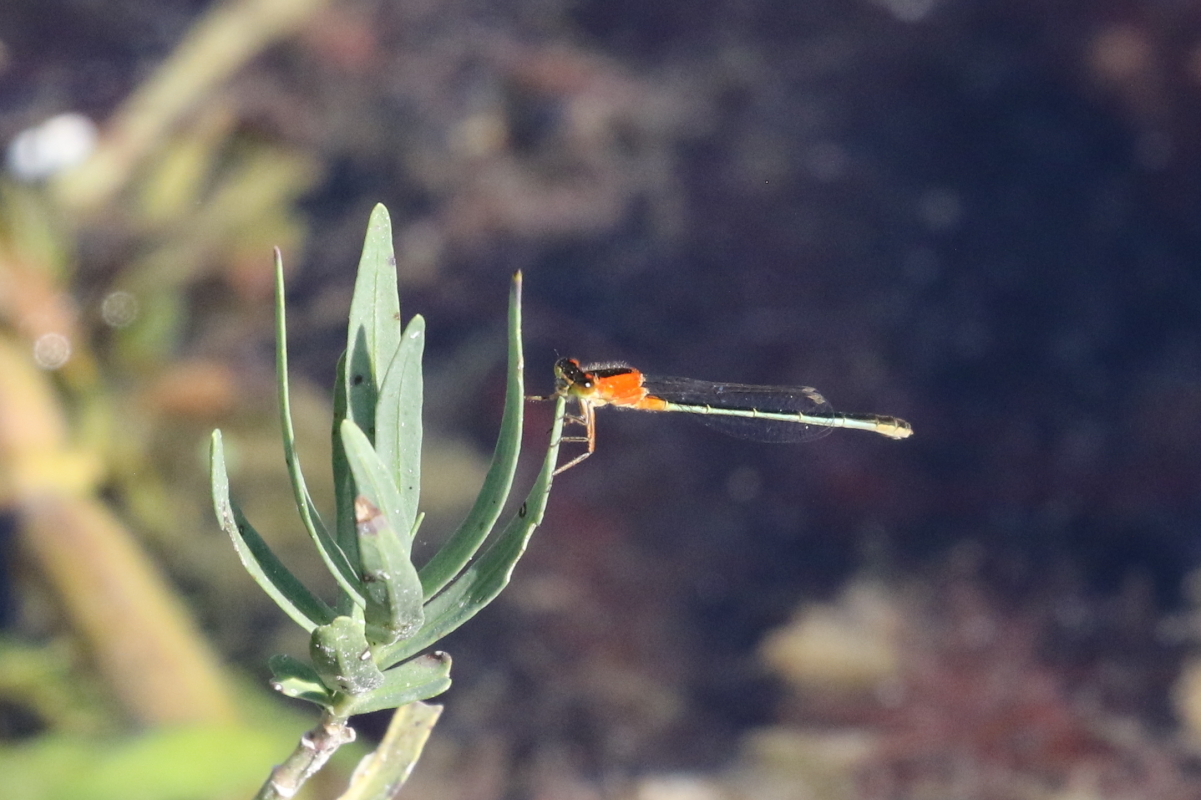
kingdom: Animalia
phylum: Arthropoda
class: Insecta
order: Odonata
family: Coenagrionidae
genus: Ischnura
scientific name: Ischnura ramburii
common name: Rambur's forktail
